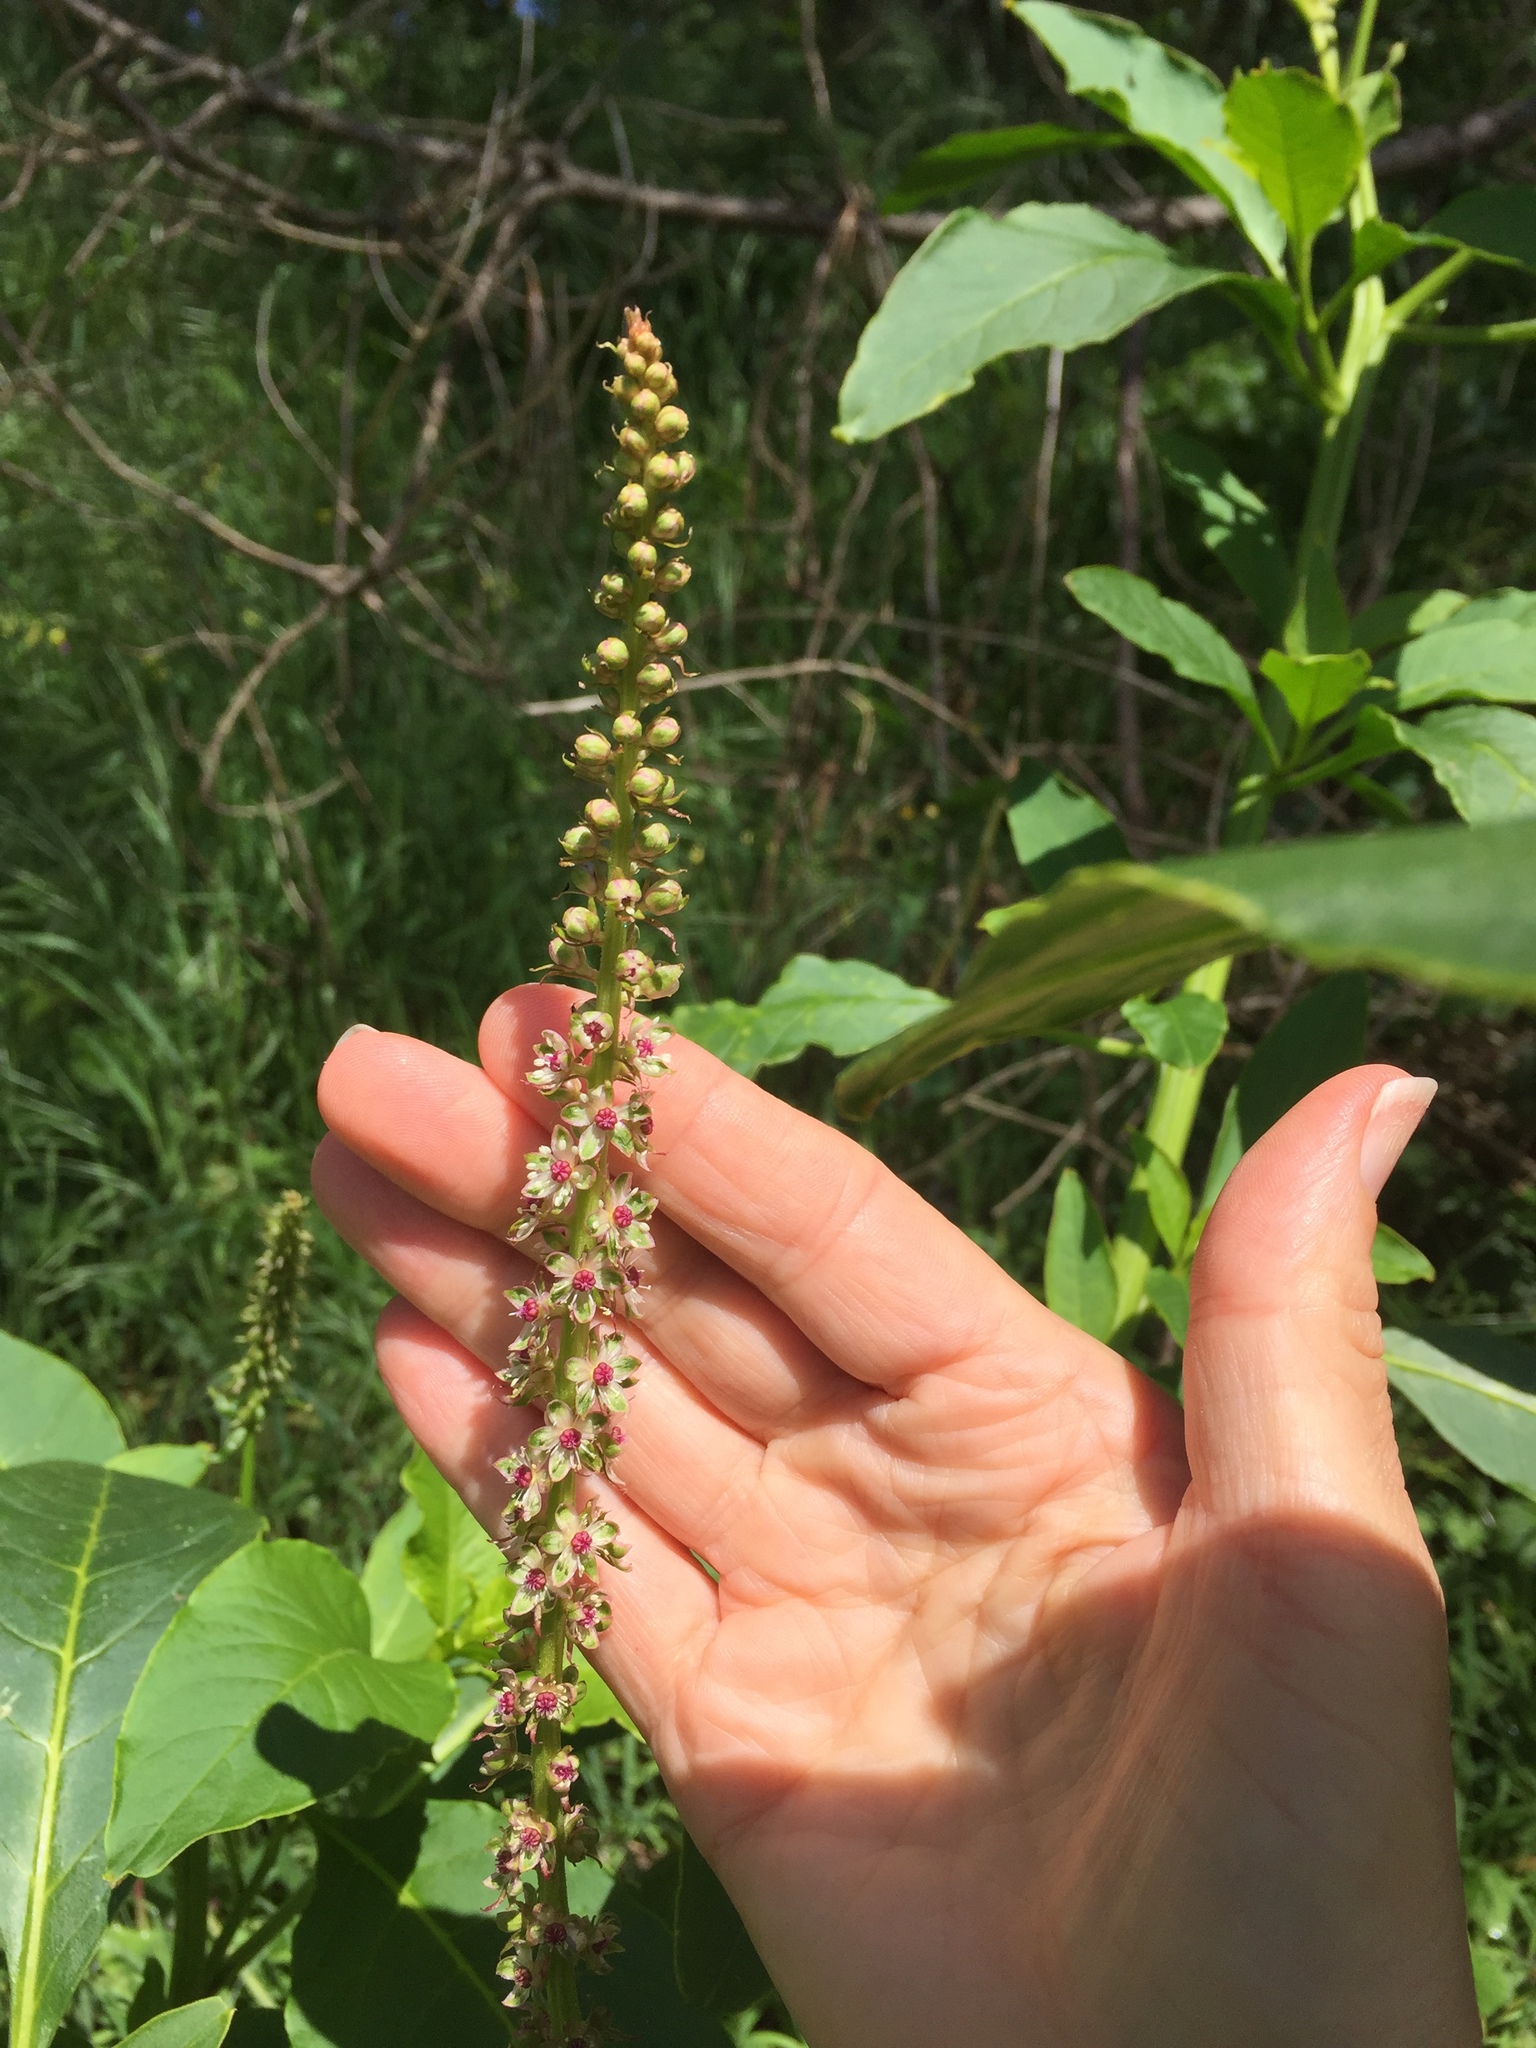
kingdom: Plantae
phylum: Tracheophyta
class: Magnoliopsida
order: Caryophyllales
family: Phytolaccaceae
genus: Phytolacca
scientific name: Phytolacca americana
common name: American pokeweed
